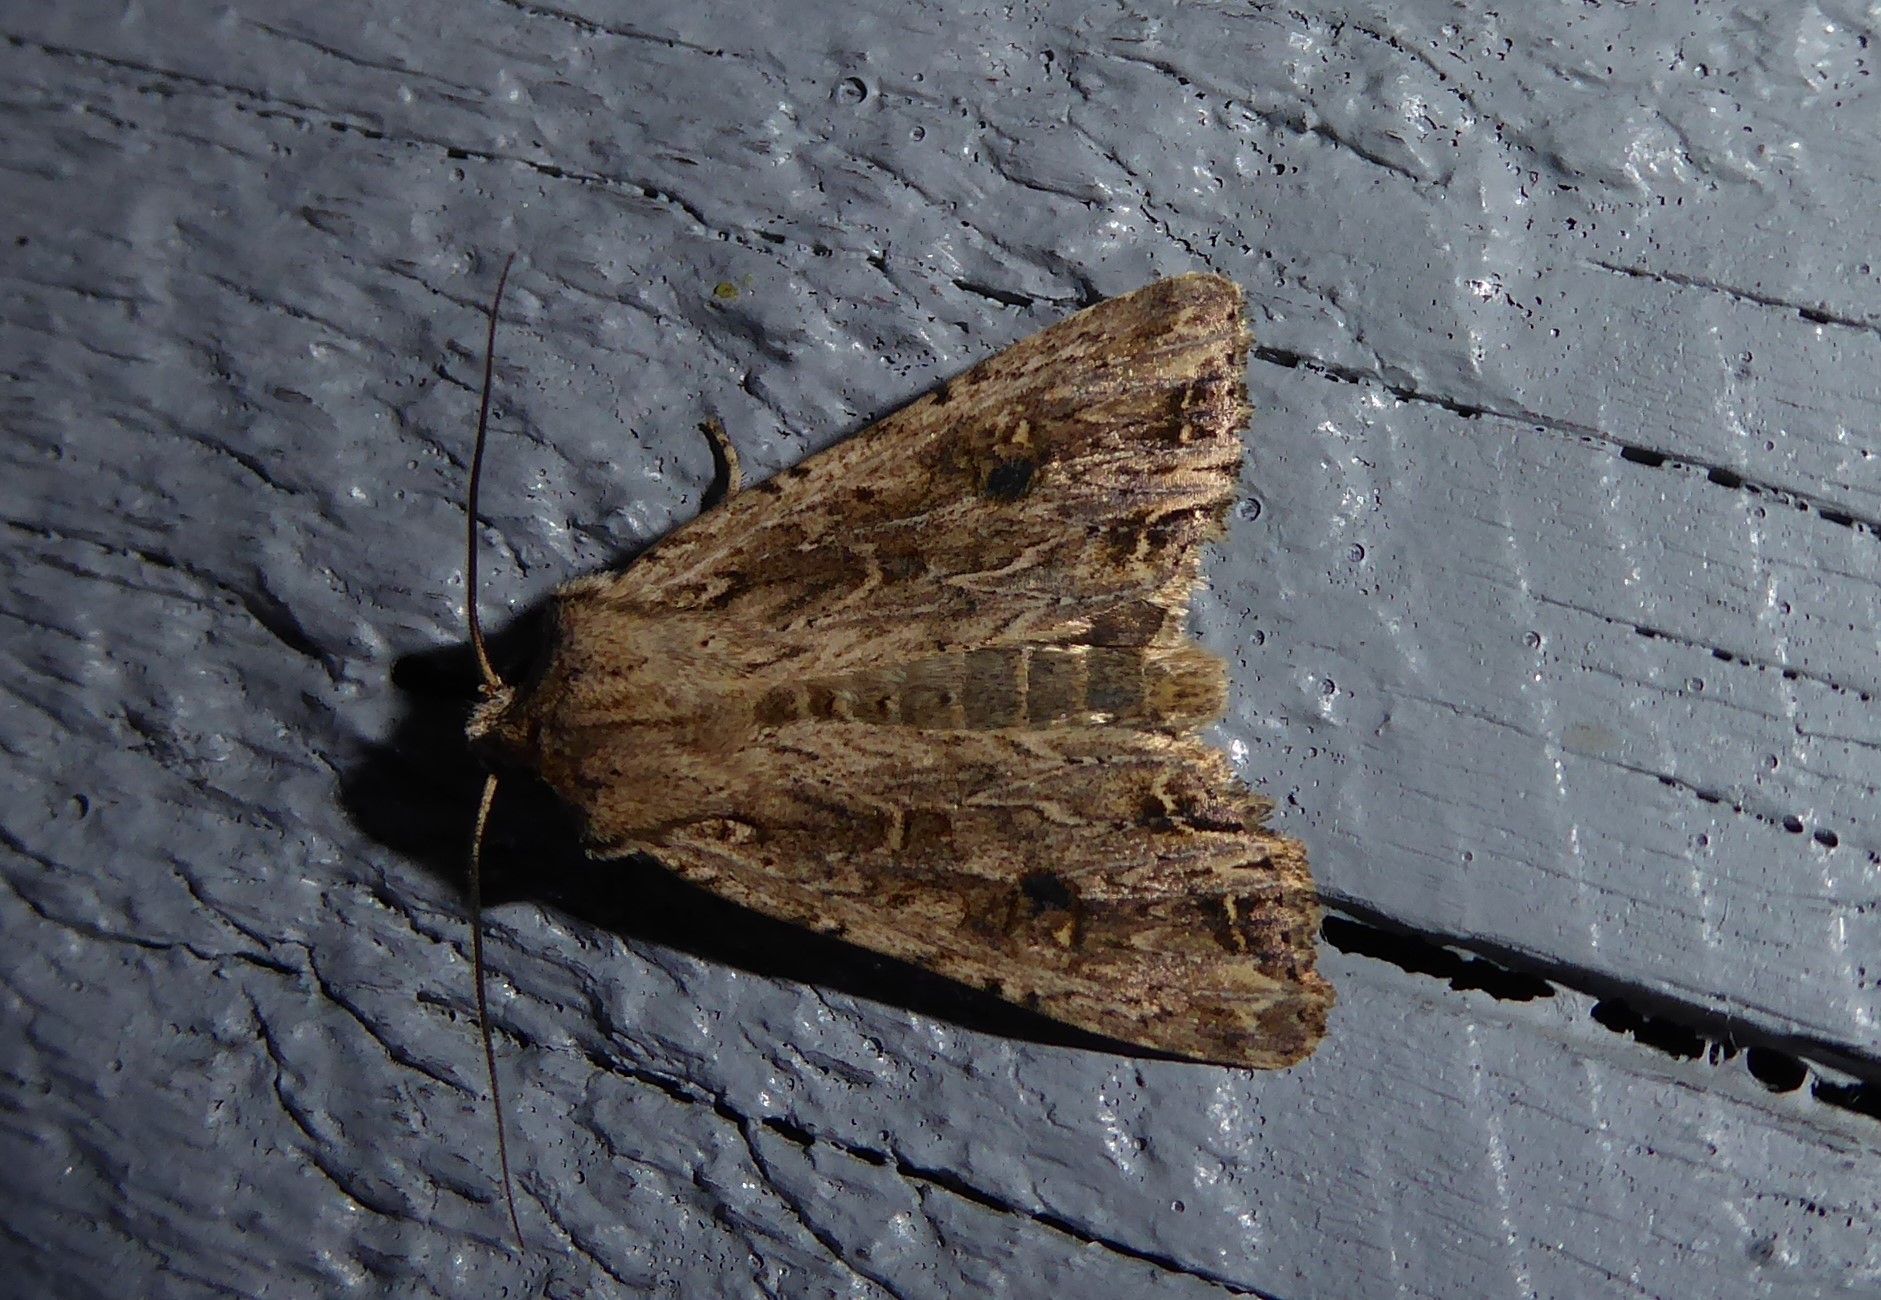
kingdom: Animalia
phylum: Arthropoda
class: Insecta
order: Lepidoptera
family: Noctuidae
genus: Ichneutica
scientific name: Ichneutica lignana
